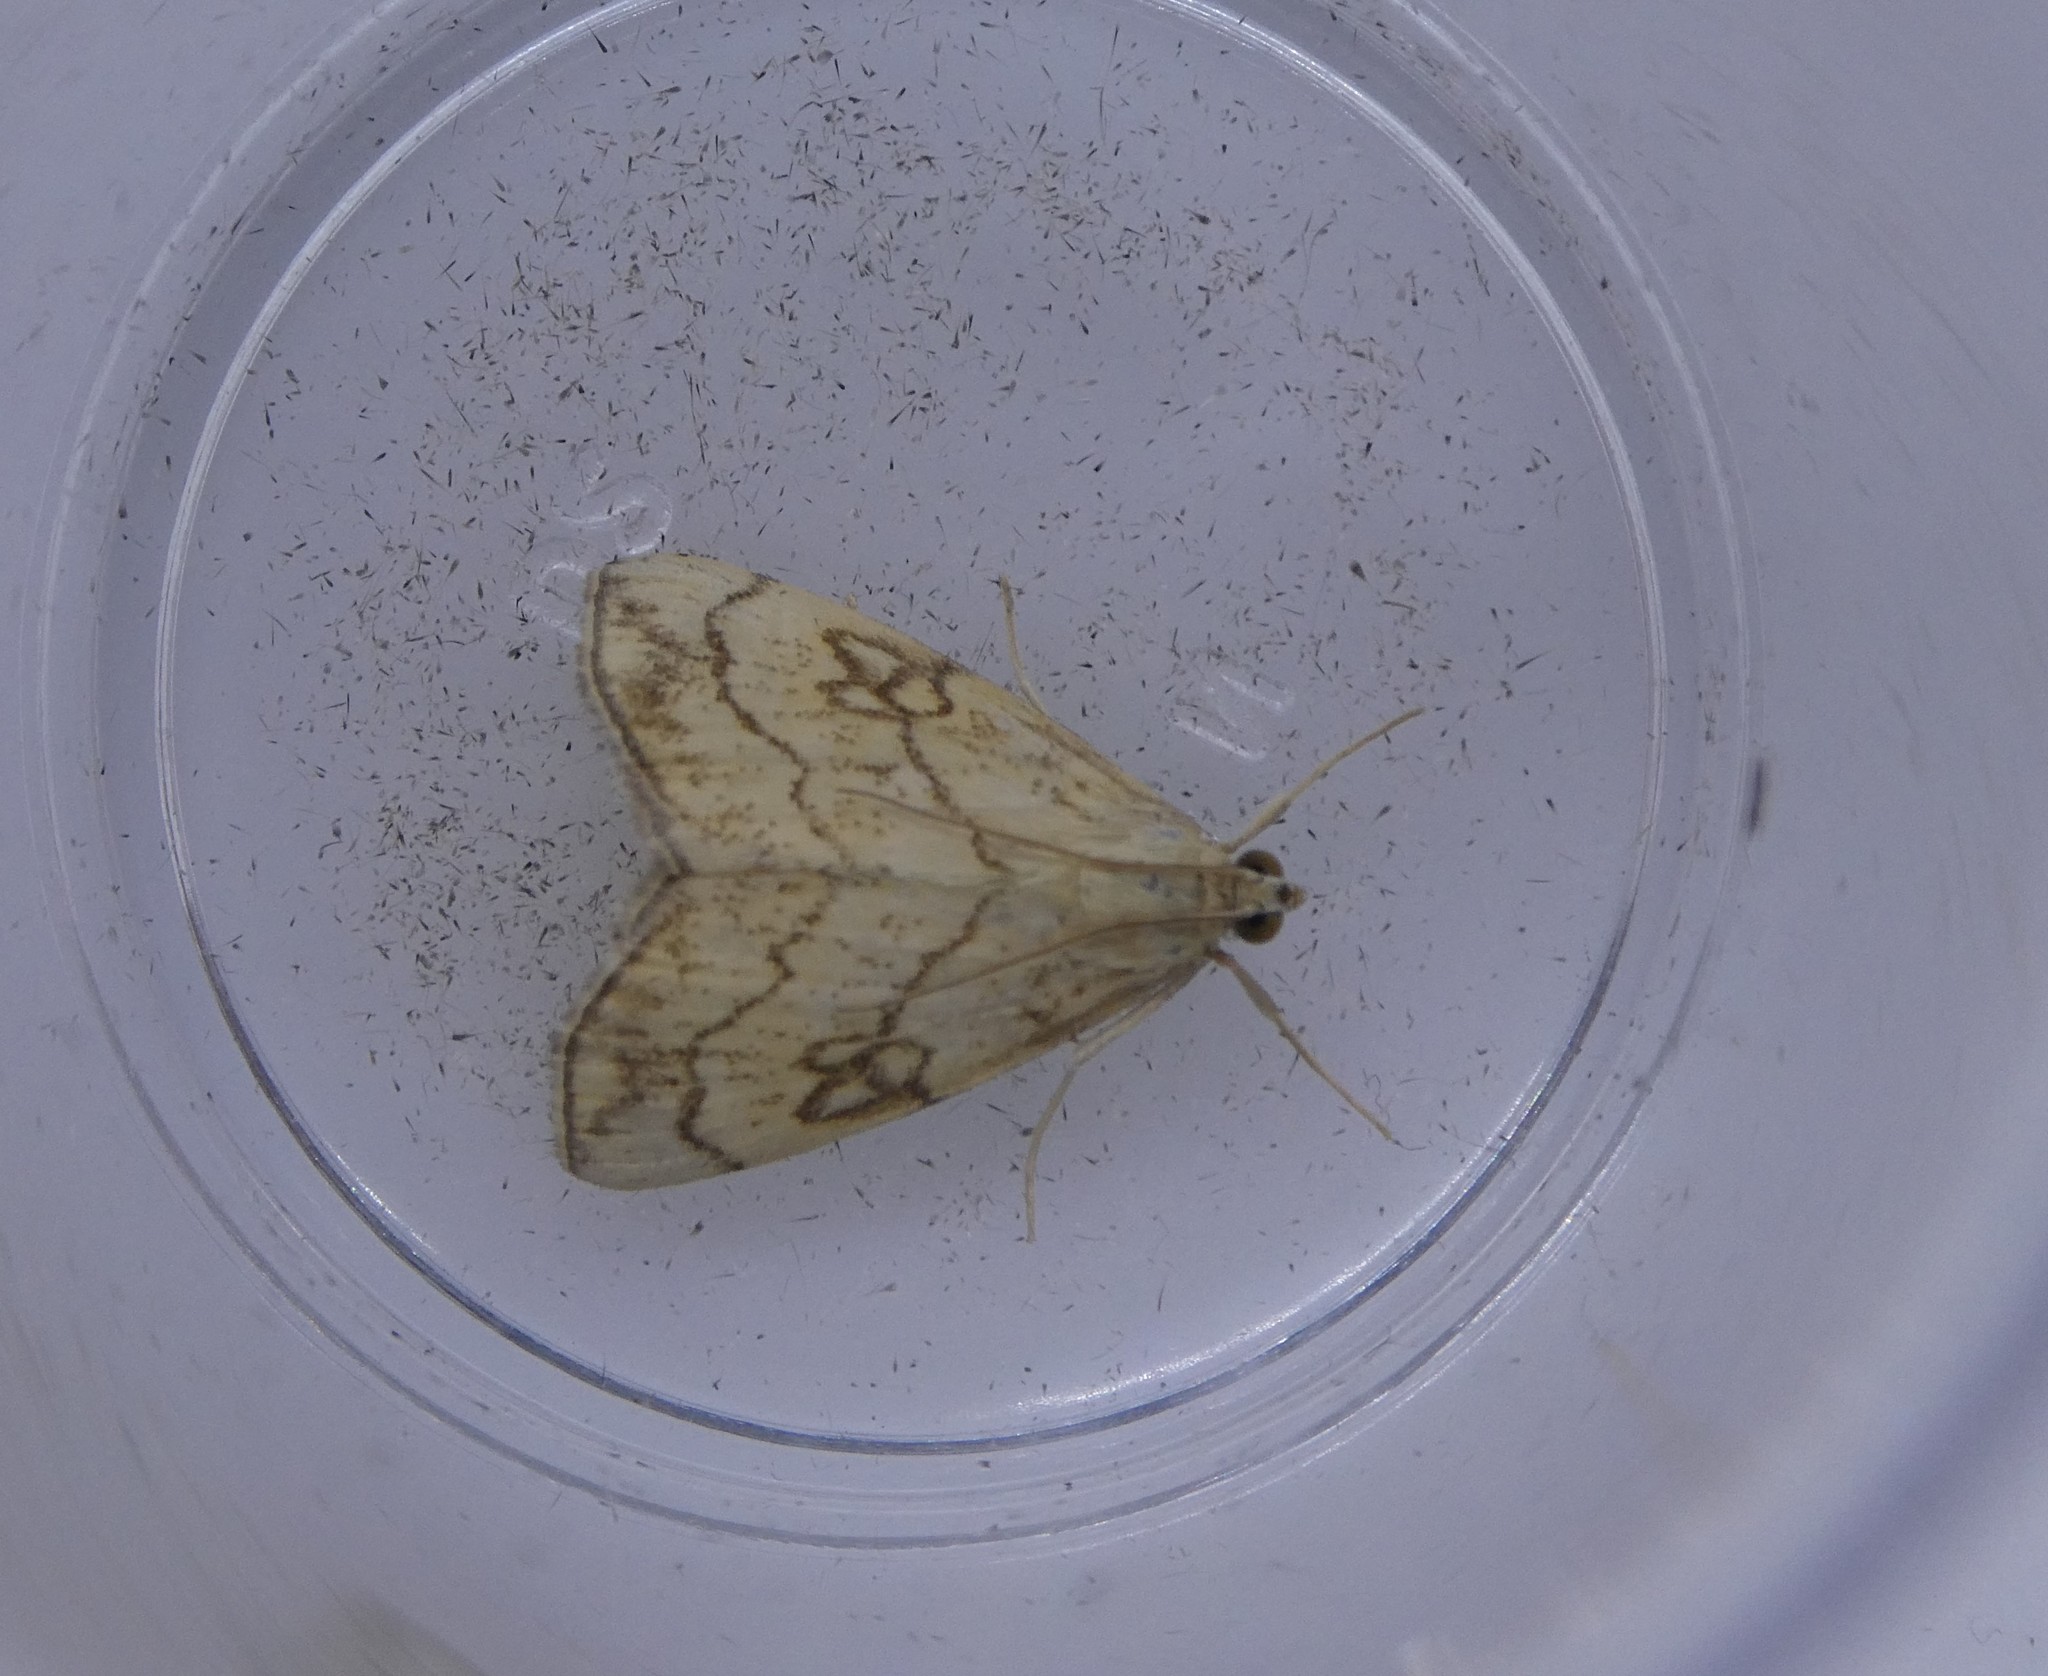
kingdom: Animalia
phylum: Arthropoda
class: Insecta
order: Lepidoptera
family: Crambidae
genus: Evergestis
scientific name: Evergestis pallidata
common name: Chequered pearl
